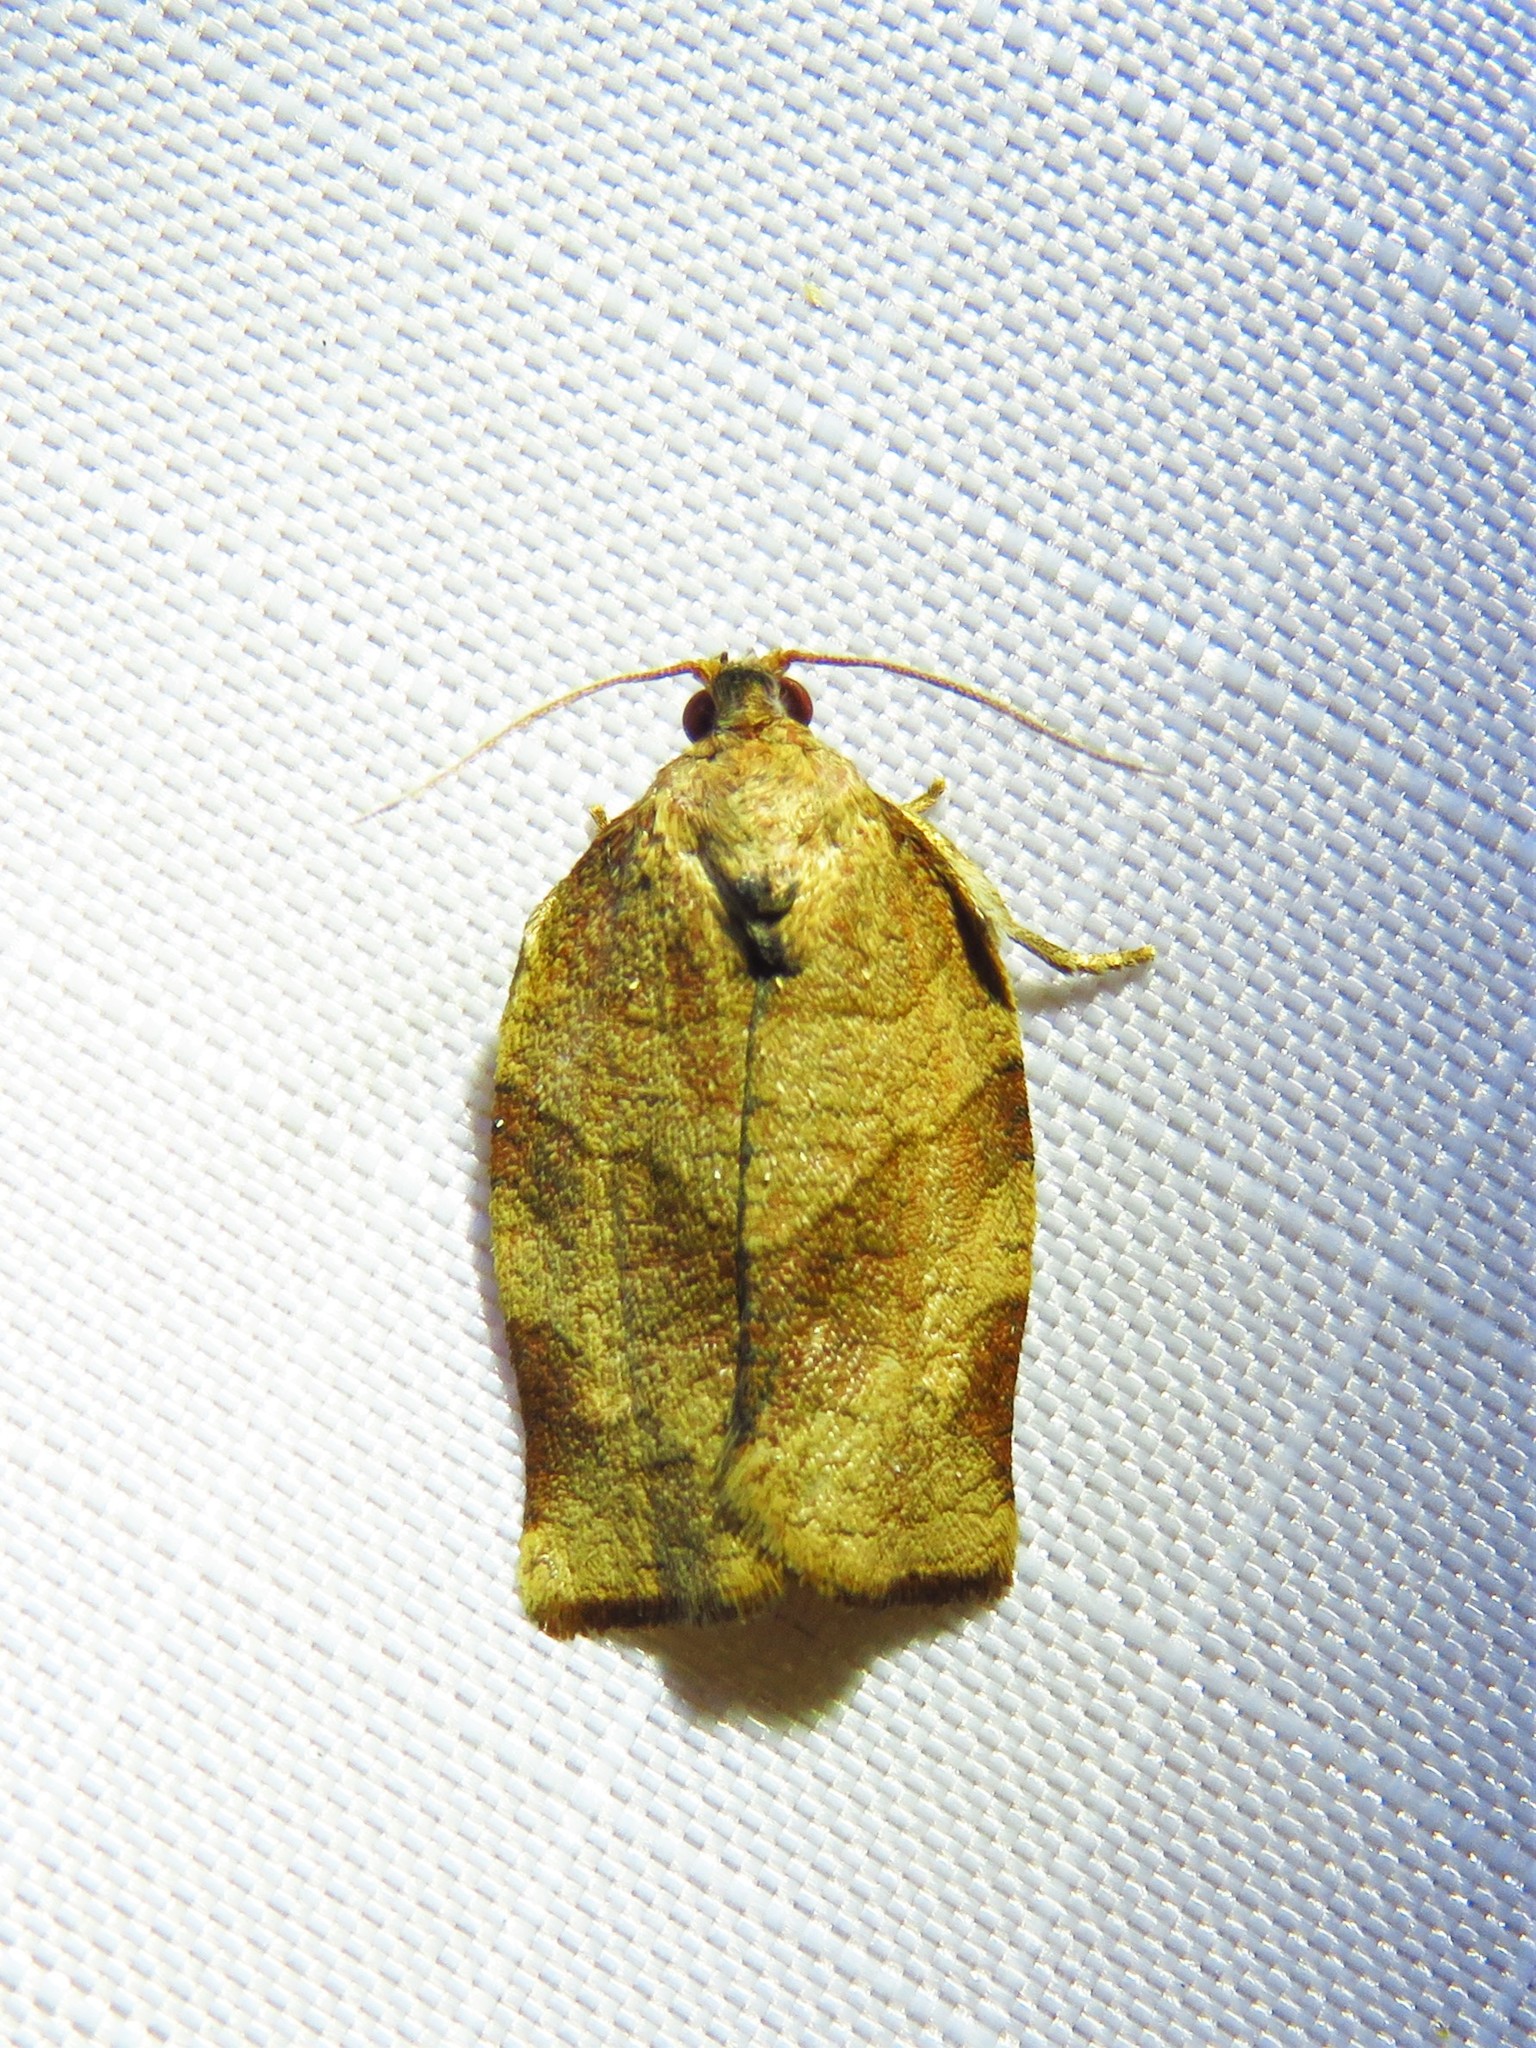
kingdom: Animalia
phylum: Arthropoda
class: Insecta
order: Lepidoptera
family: Tortricidae
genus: Choristoneura
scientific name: Choristoneura rosaceana
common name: Oblique-banded leafroller moth
